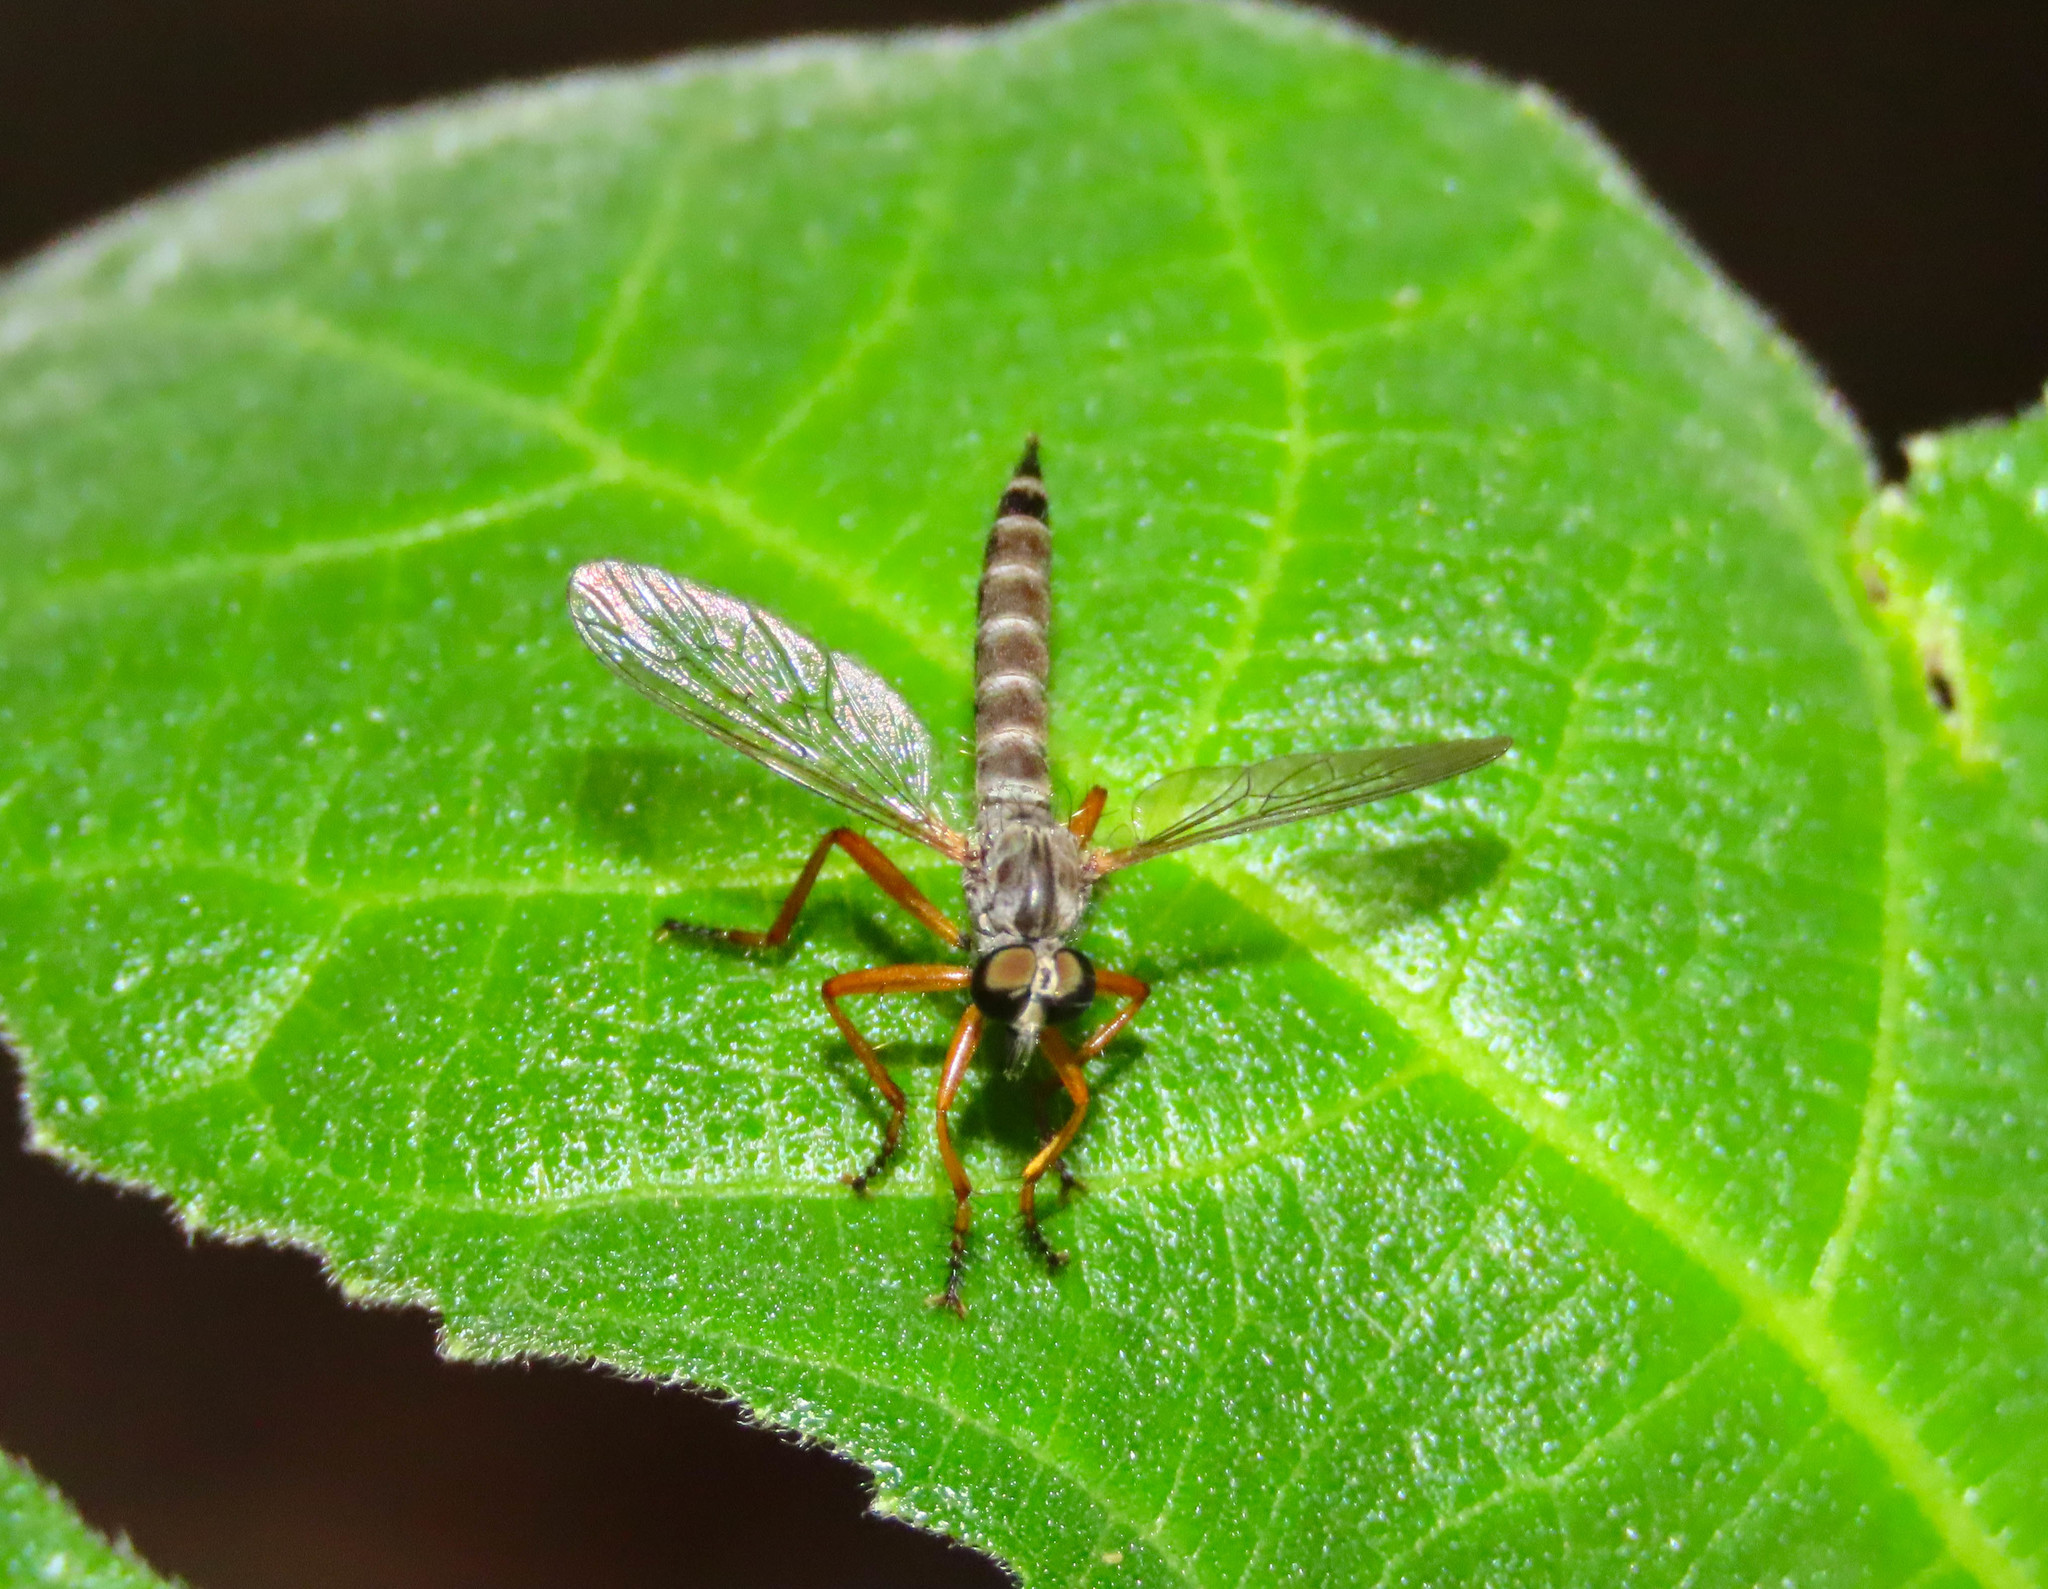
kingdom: Animalia
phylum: Arthropoda
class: Insecta
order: Diptera
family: Asilidae
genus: Neomochtherus
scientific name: Neomochtherus schineri
